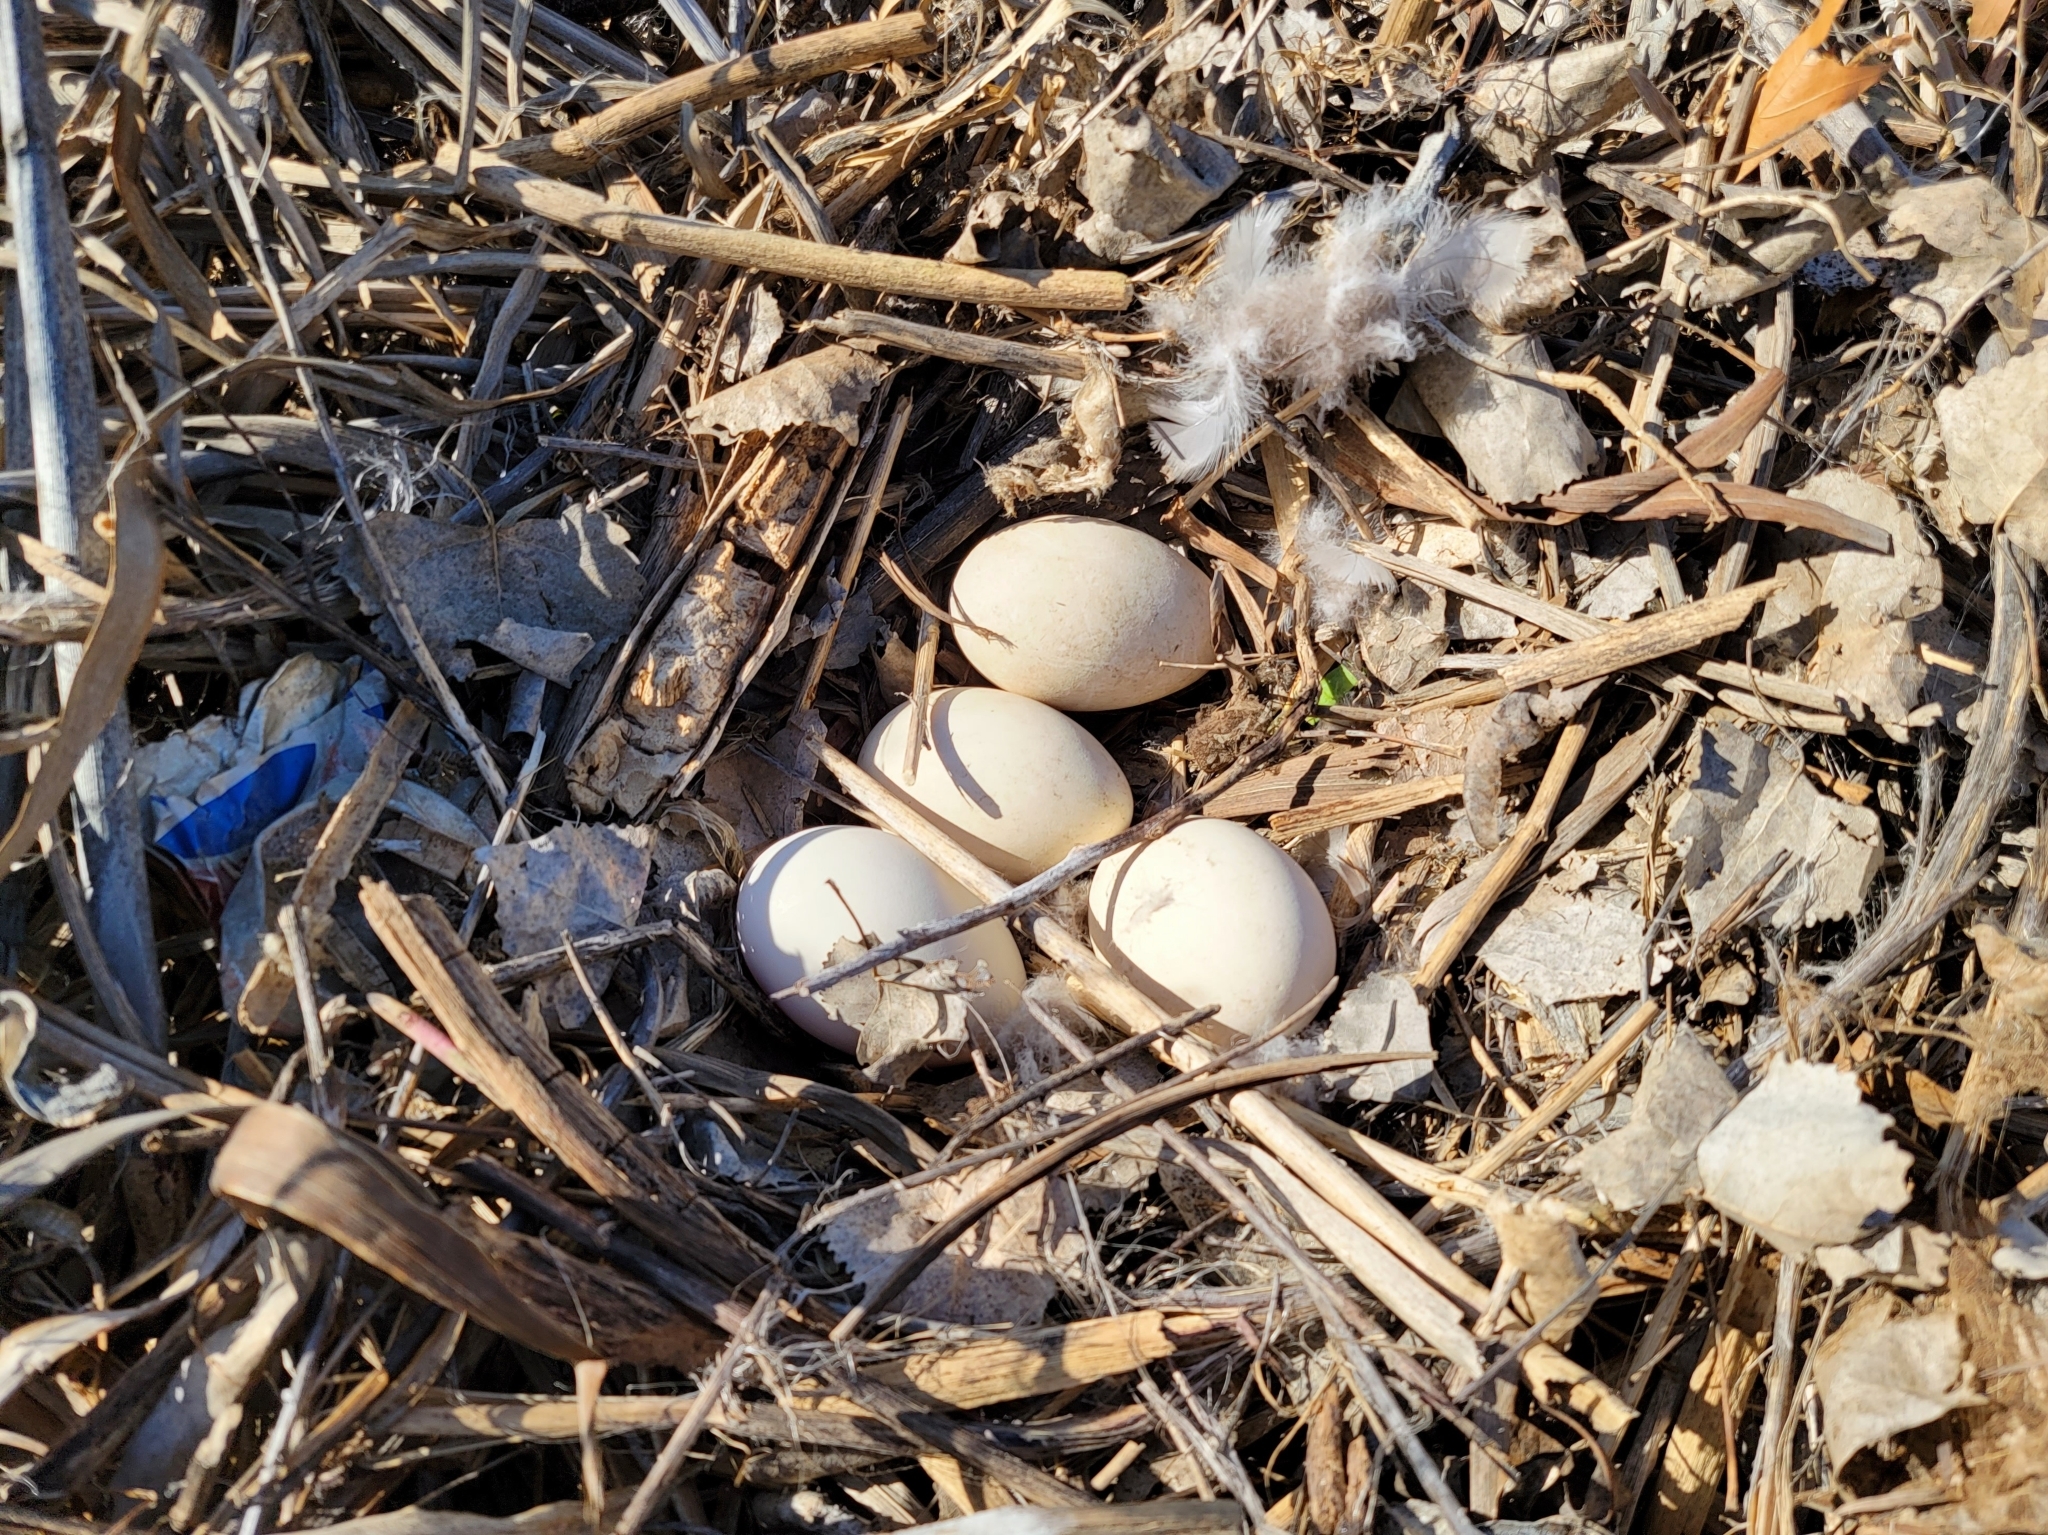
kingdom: Animalia
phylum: Chordata
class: Aves
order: Anseriformes
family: Anatidae
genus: Branta
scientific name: Branta canadensis
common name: Canada goose
